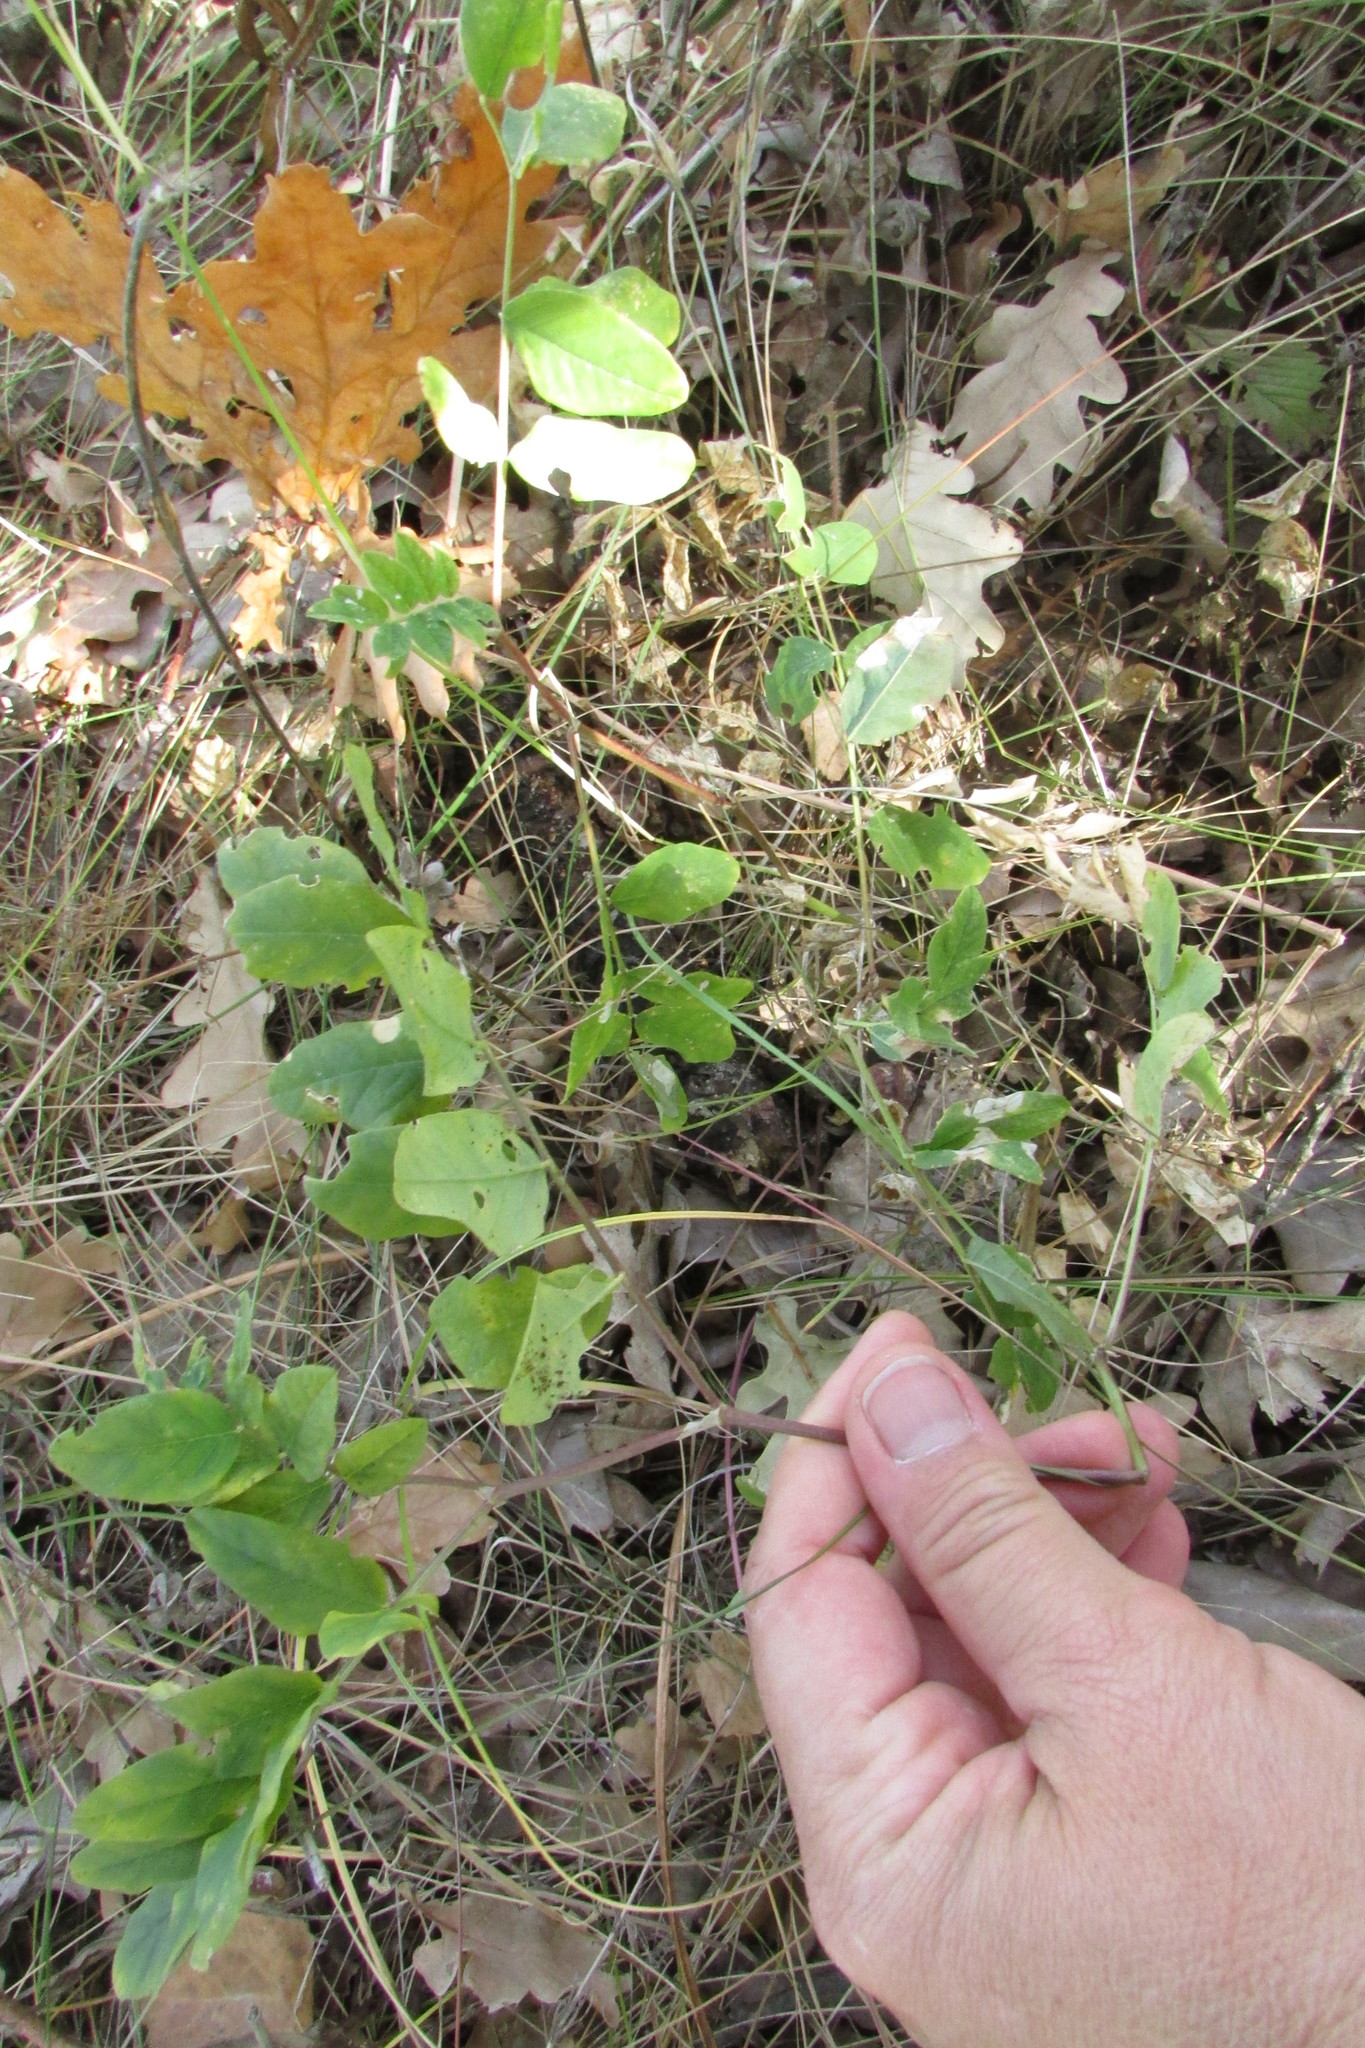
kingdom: Plantae
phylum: Tracheophyta
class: Magnoliopsida
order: Fabales
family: Fabaceae
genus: Astragalus
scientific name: Astragalus glycyphyllos
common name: Wild liquorice
